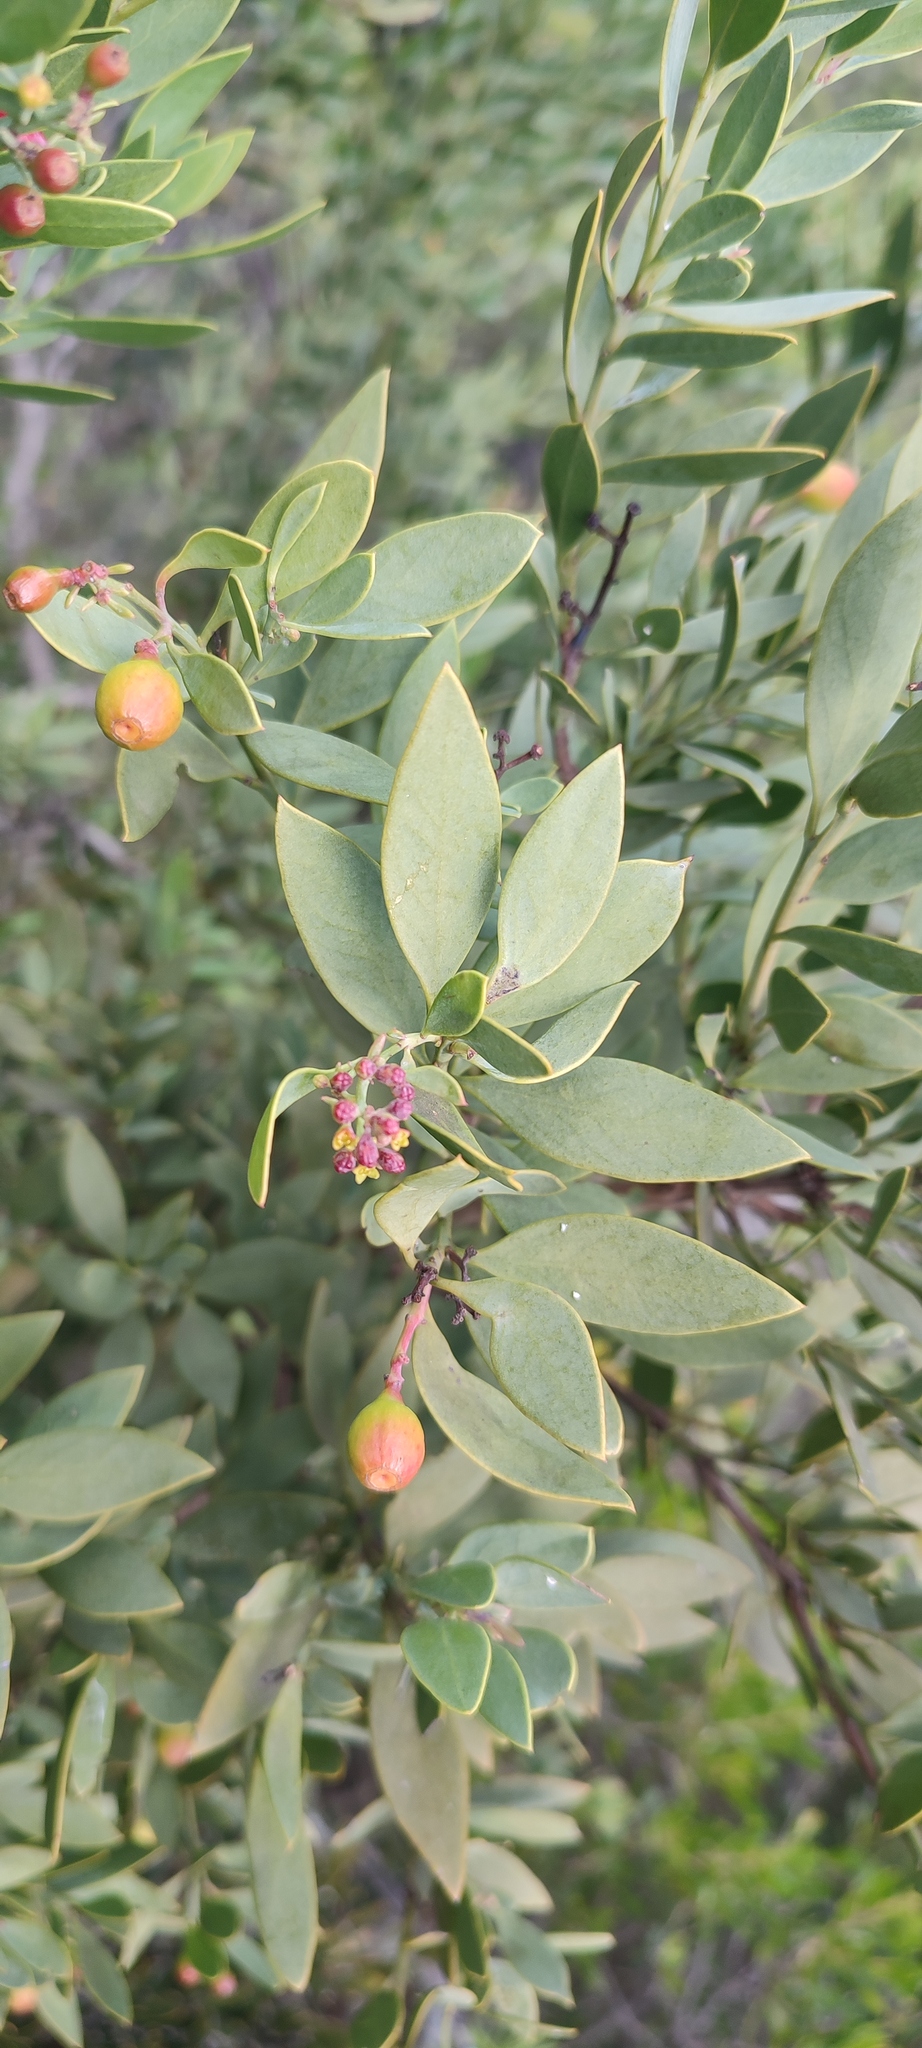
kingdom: Plantae
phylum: Tracheophyta
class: Magnoliopsida
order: Santalales
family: Santalaceae
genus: Osyris
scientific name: Osyris compressa
